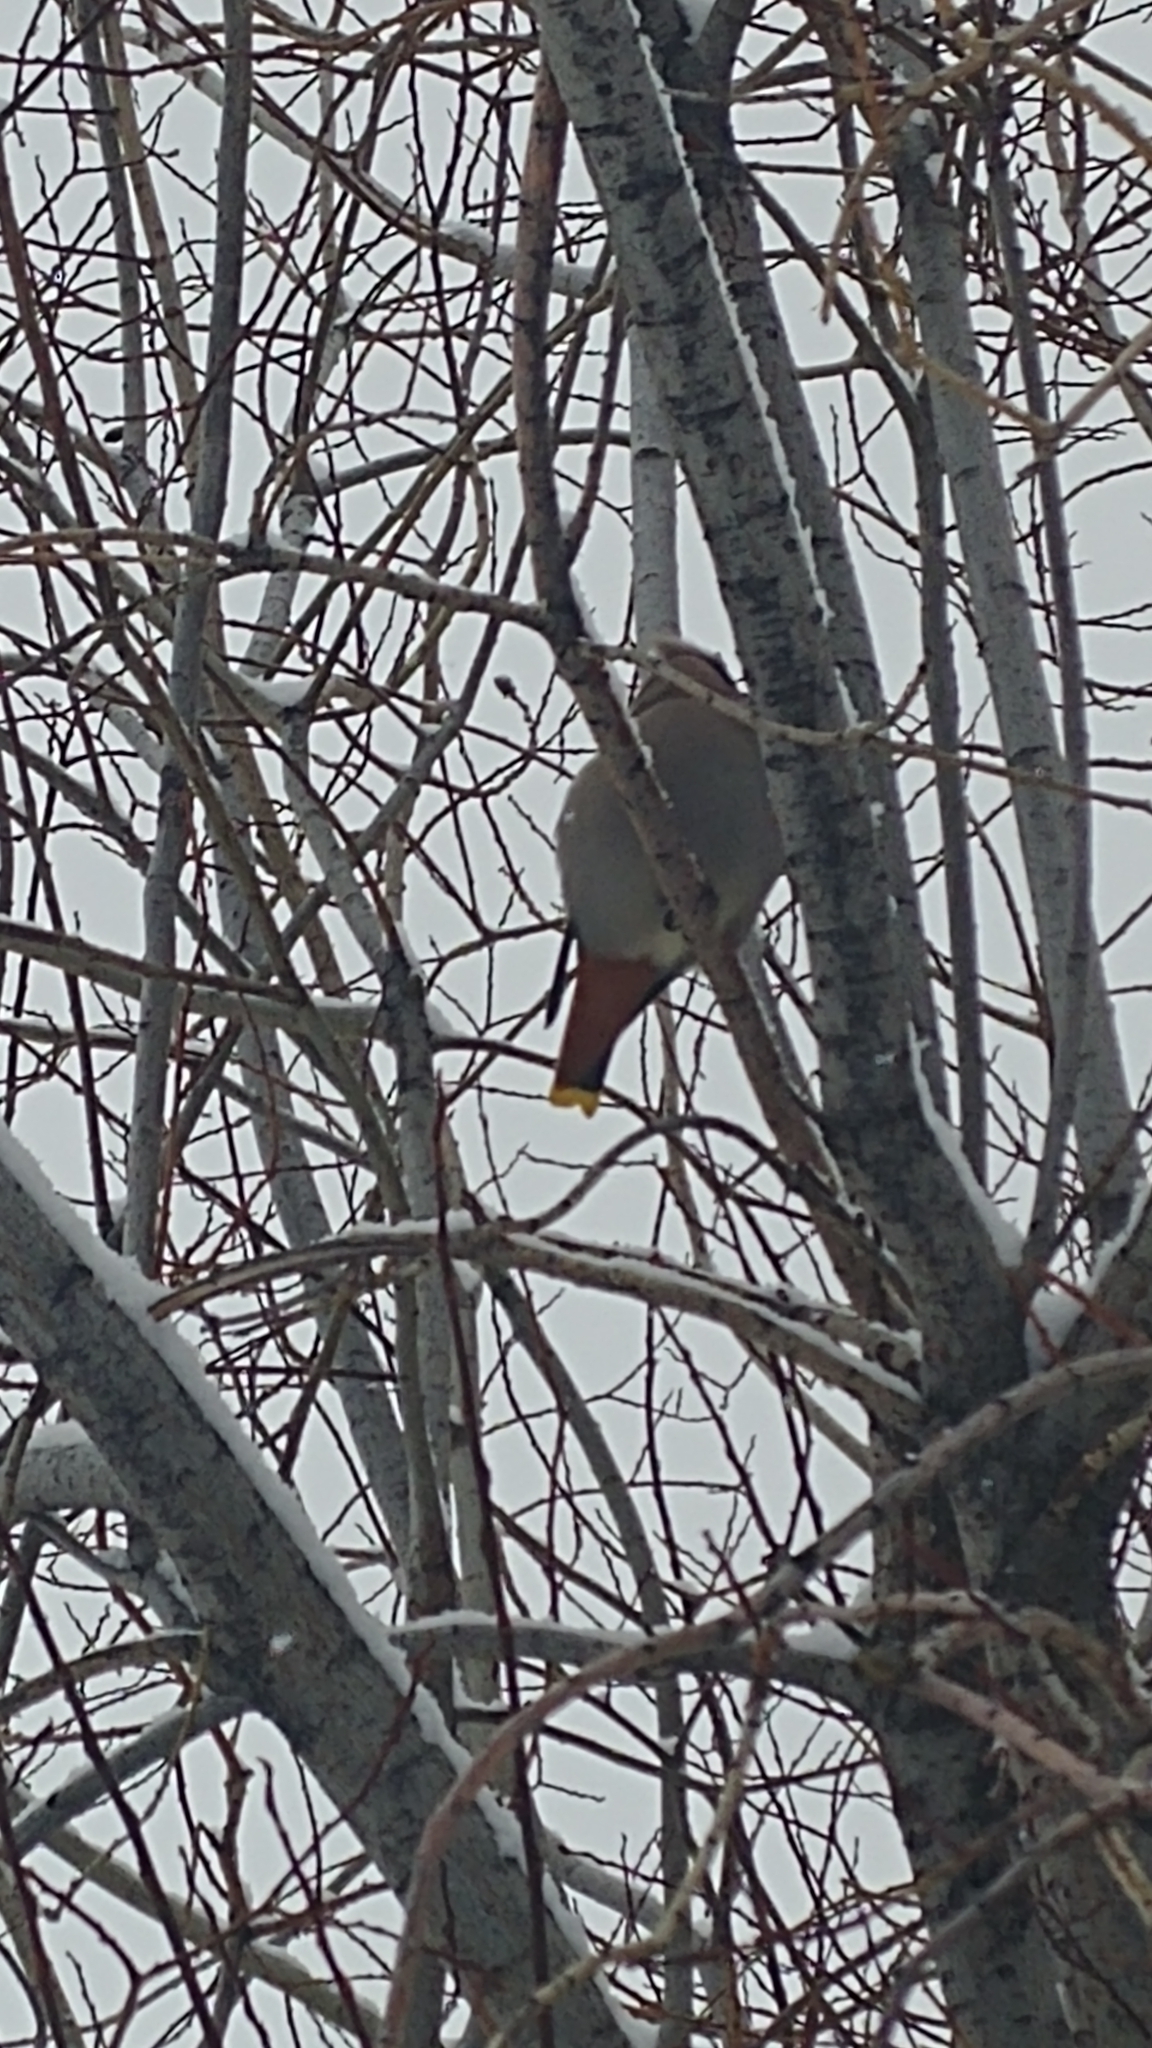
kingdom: Animalia
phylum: Chordata
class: Aves
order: Passeriformes
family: Bombycillidae
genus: Bombycilla
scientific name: Bombycilla garrulus
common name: Bohemian waxwing
